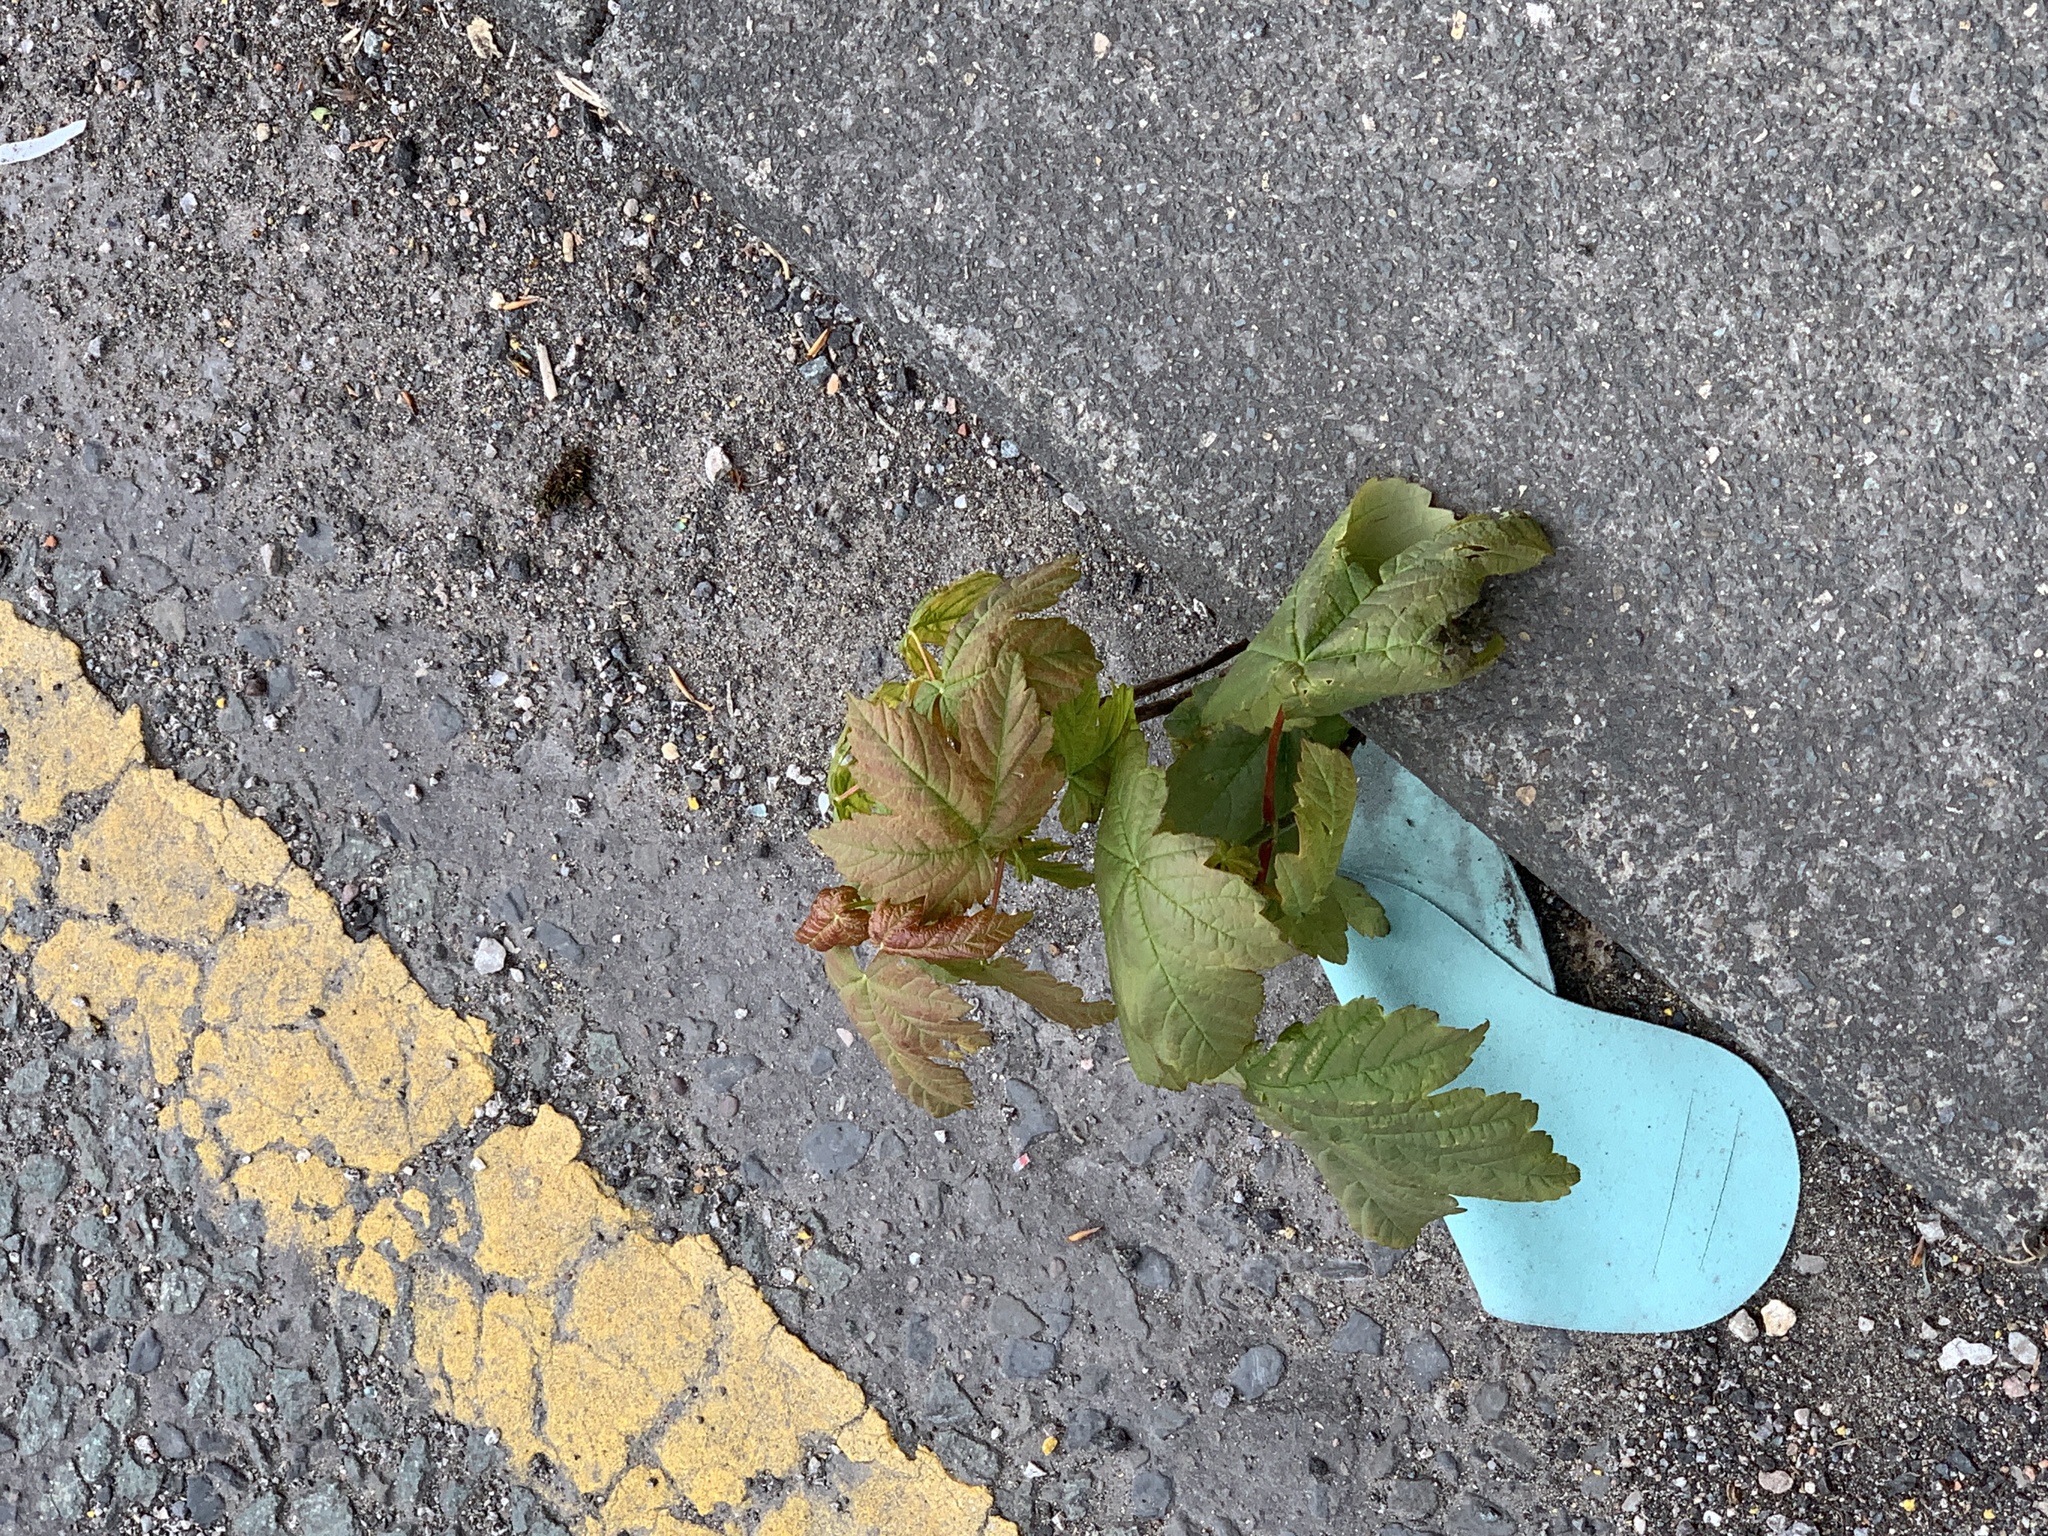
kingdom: Plantae
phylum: Tracheophyta
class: Magnoliopsida
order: Sapindales
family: Sapindaceae
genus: Acer
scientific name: Acer pseudoplatanus
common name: Sycamore
